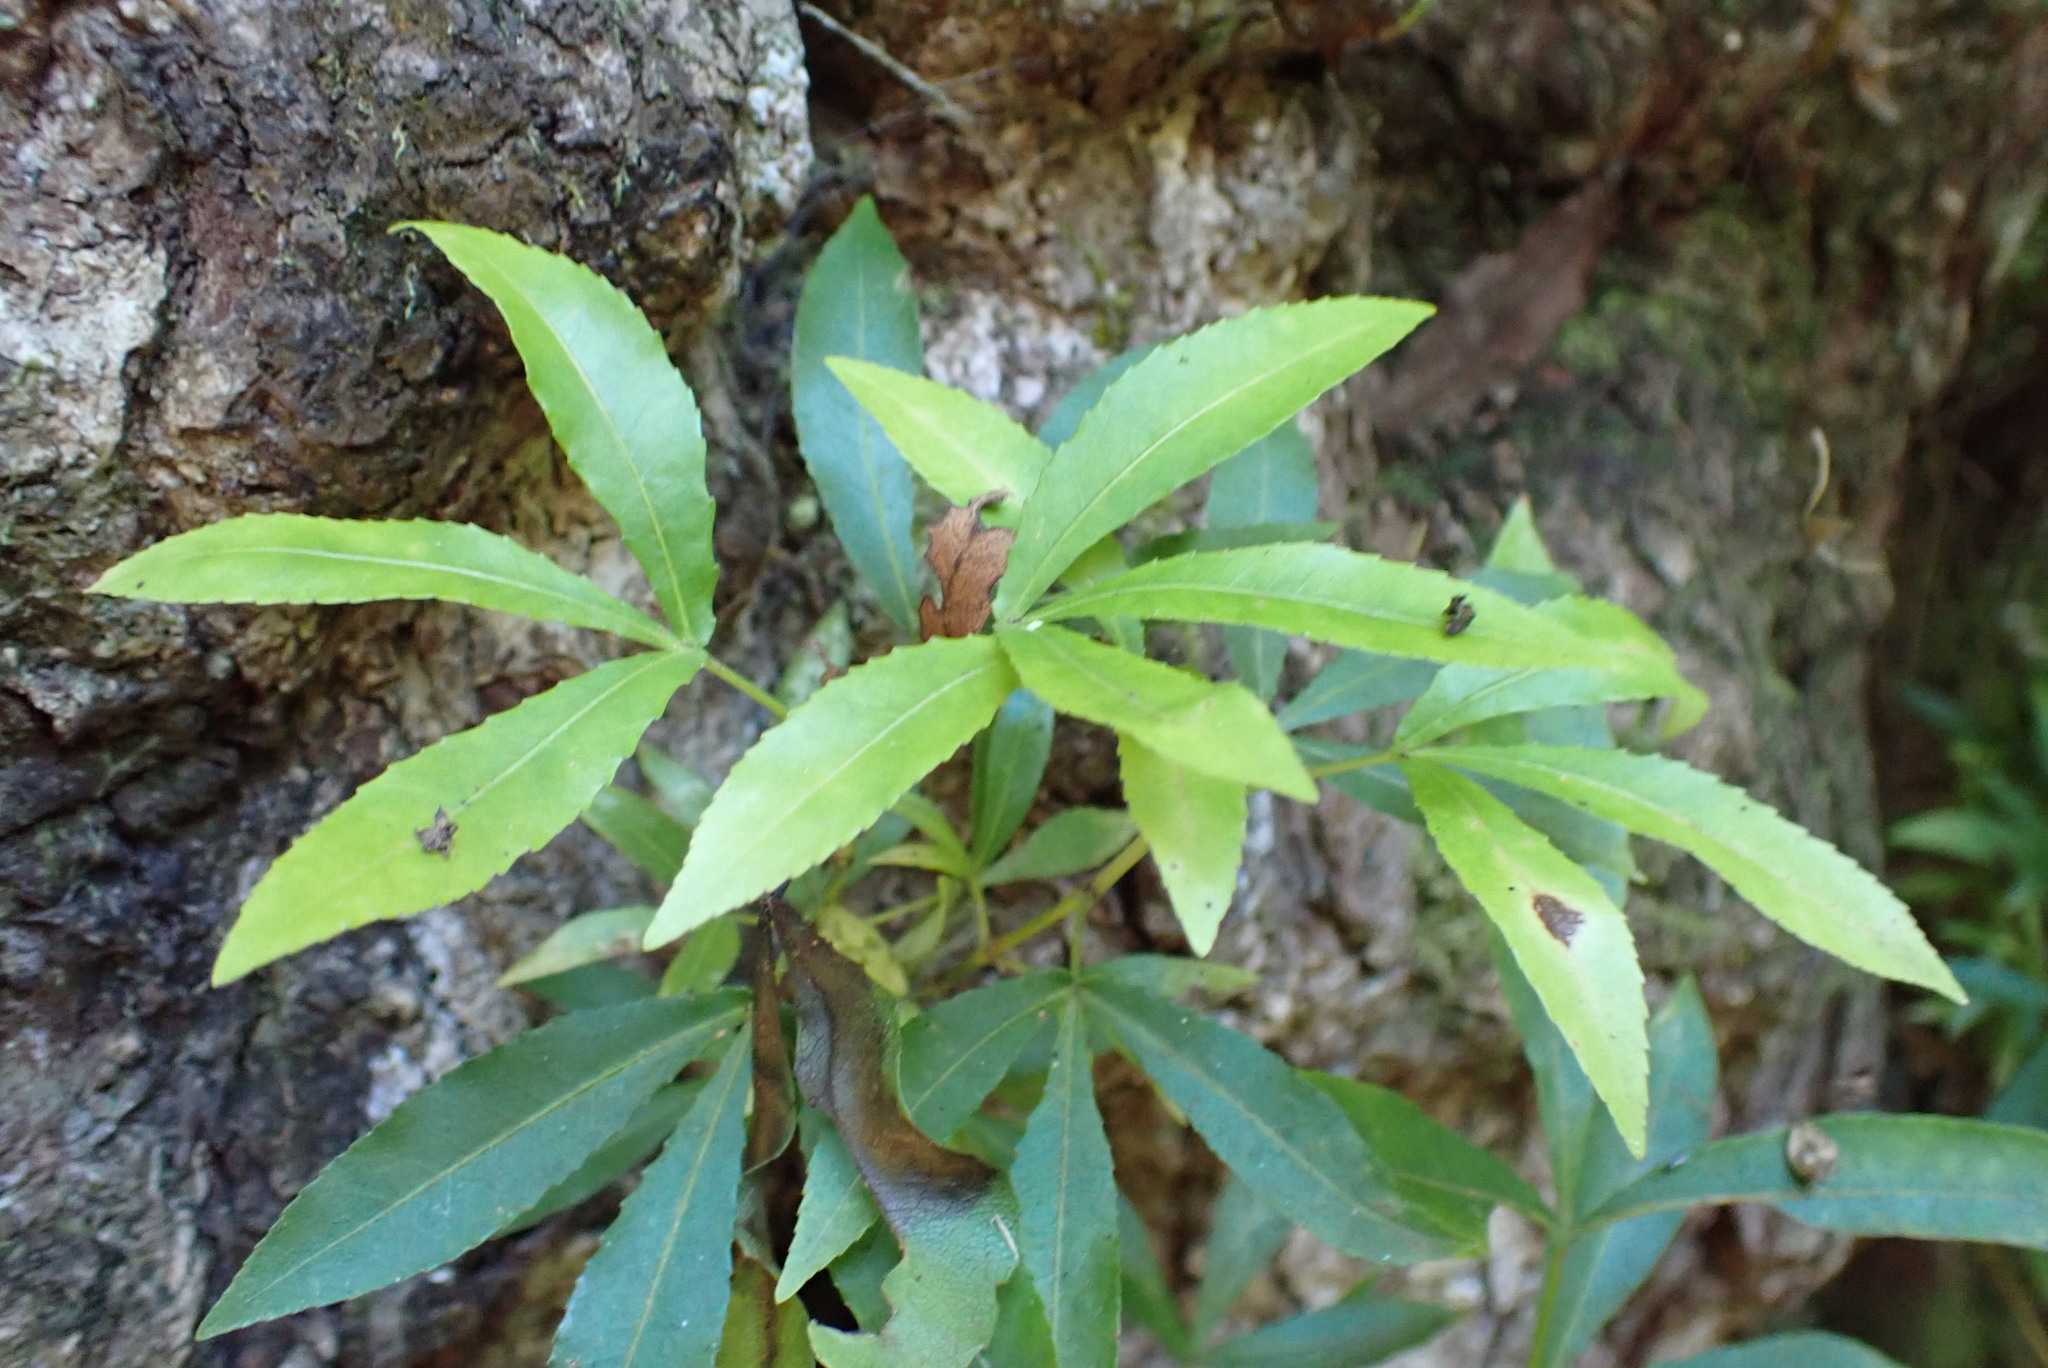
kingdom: Plantae
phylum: Tracheophyta
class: Magnoliopsida
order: Oxalidales
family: Cunoniaceae
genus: Platylophus
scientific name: Platylophus trifoliatus
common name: White alder
